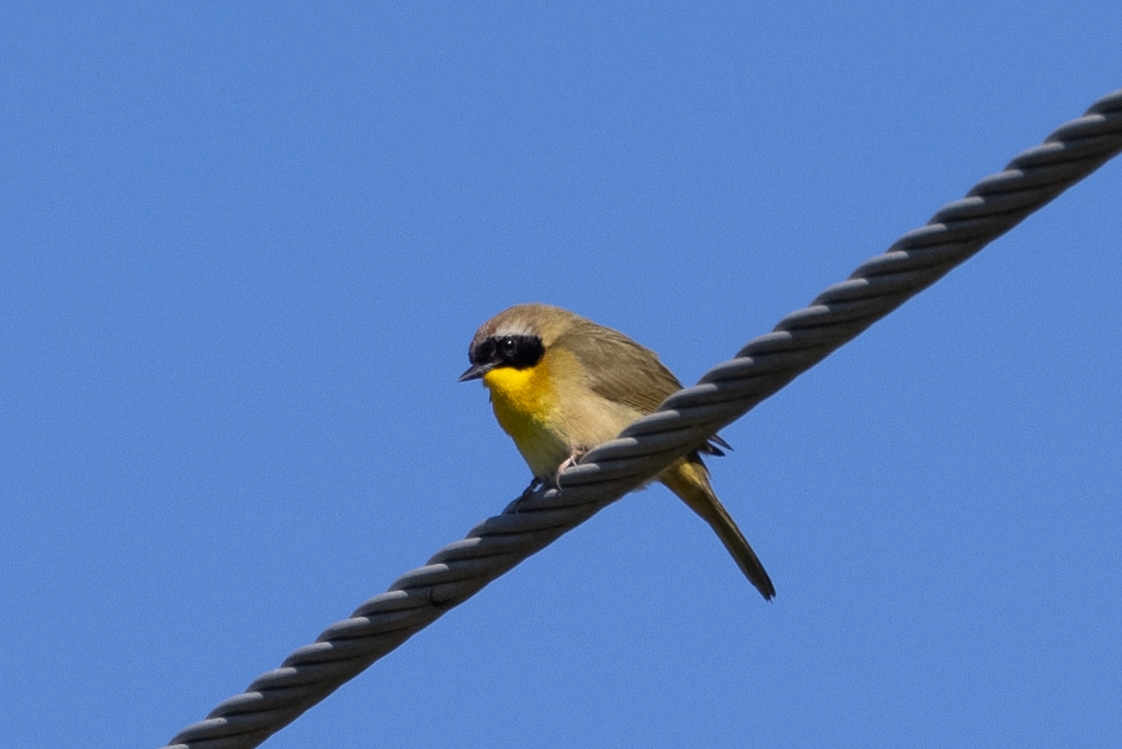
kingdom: Animalia
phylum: Chordata
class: Aves
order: Passeriformes
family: Parulidae
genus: Geothlypis
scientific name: Geothlypis trichas
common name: Common yellowthroat
